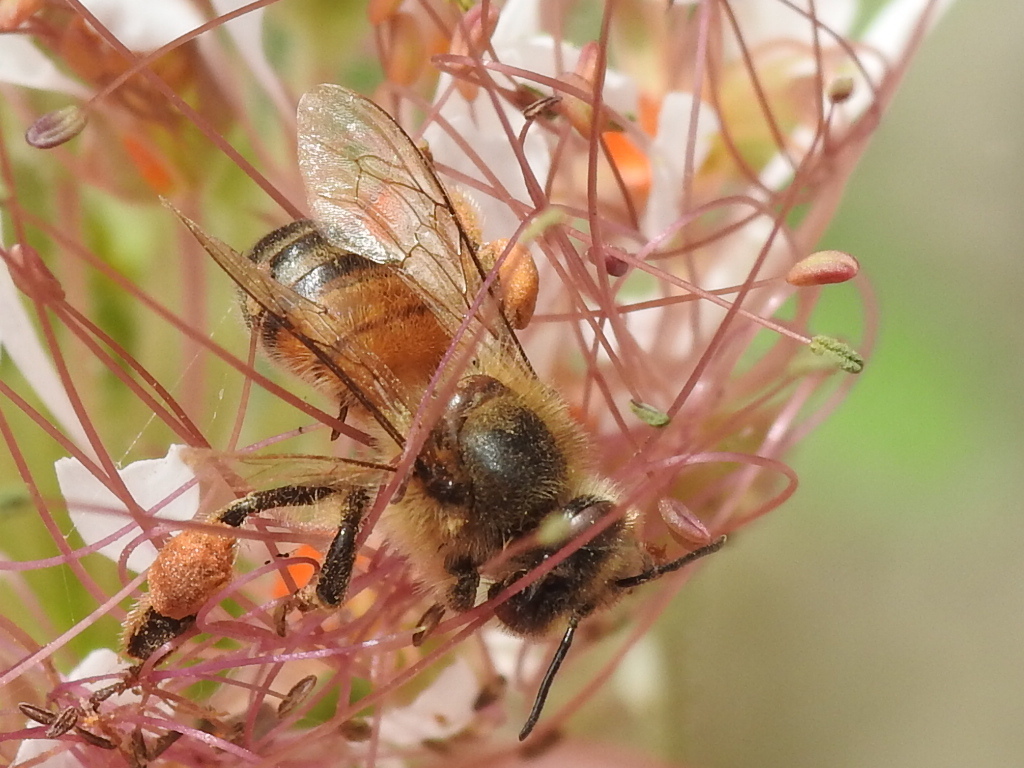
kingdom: Animalia
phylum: Arthropoda
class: Insecta
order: Hymenoptera
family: Apidae
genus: Apis
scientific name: Apis mellifera
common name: Honey bee
